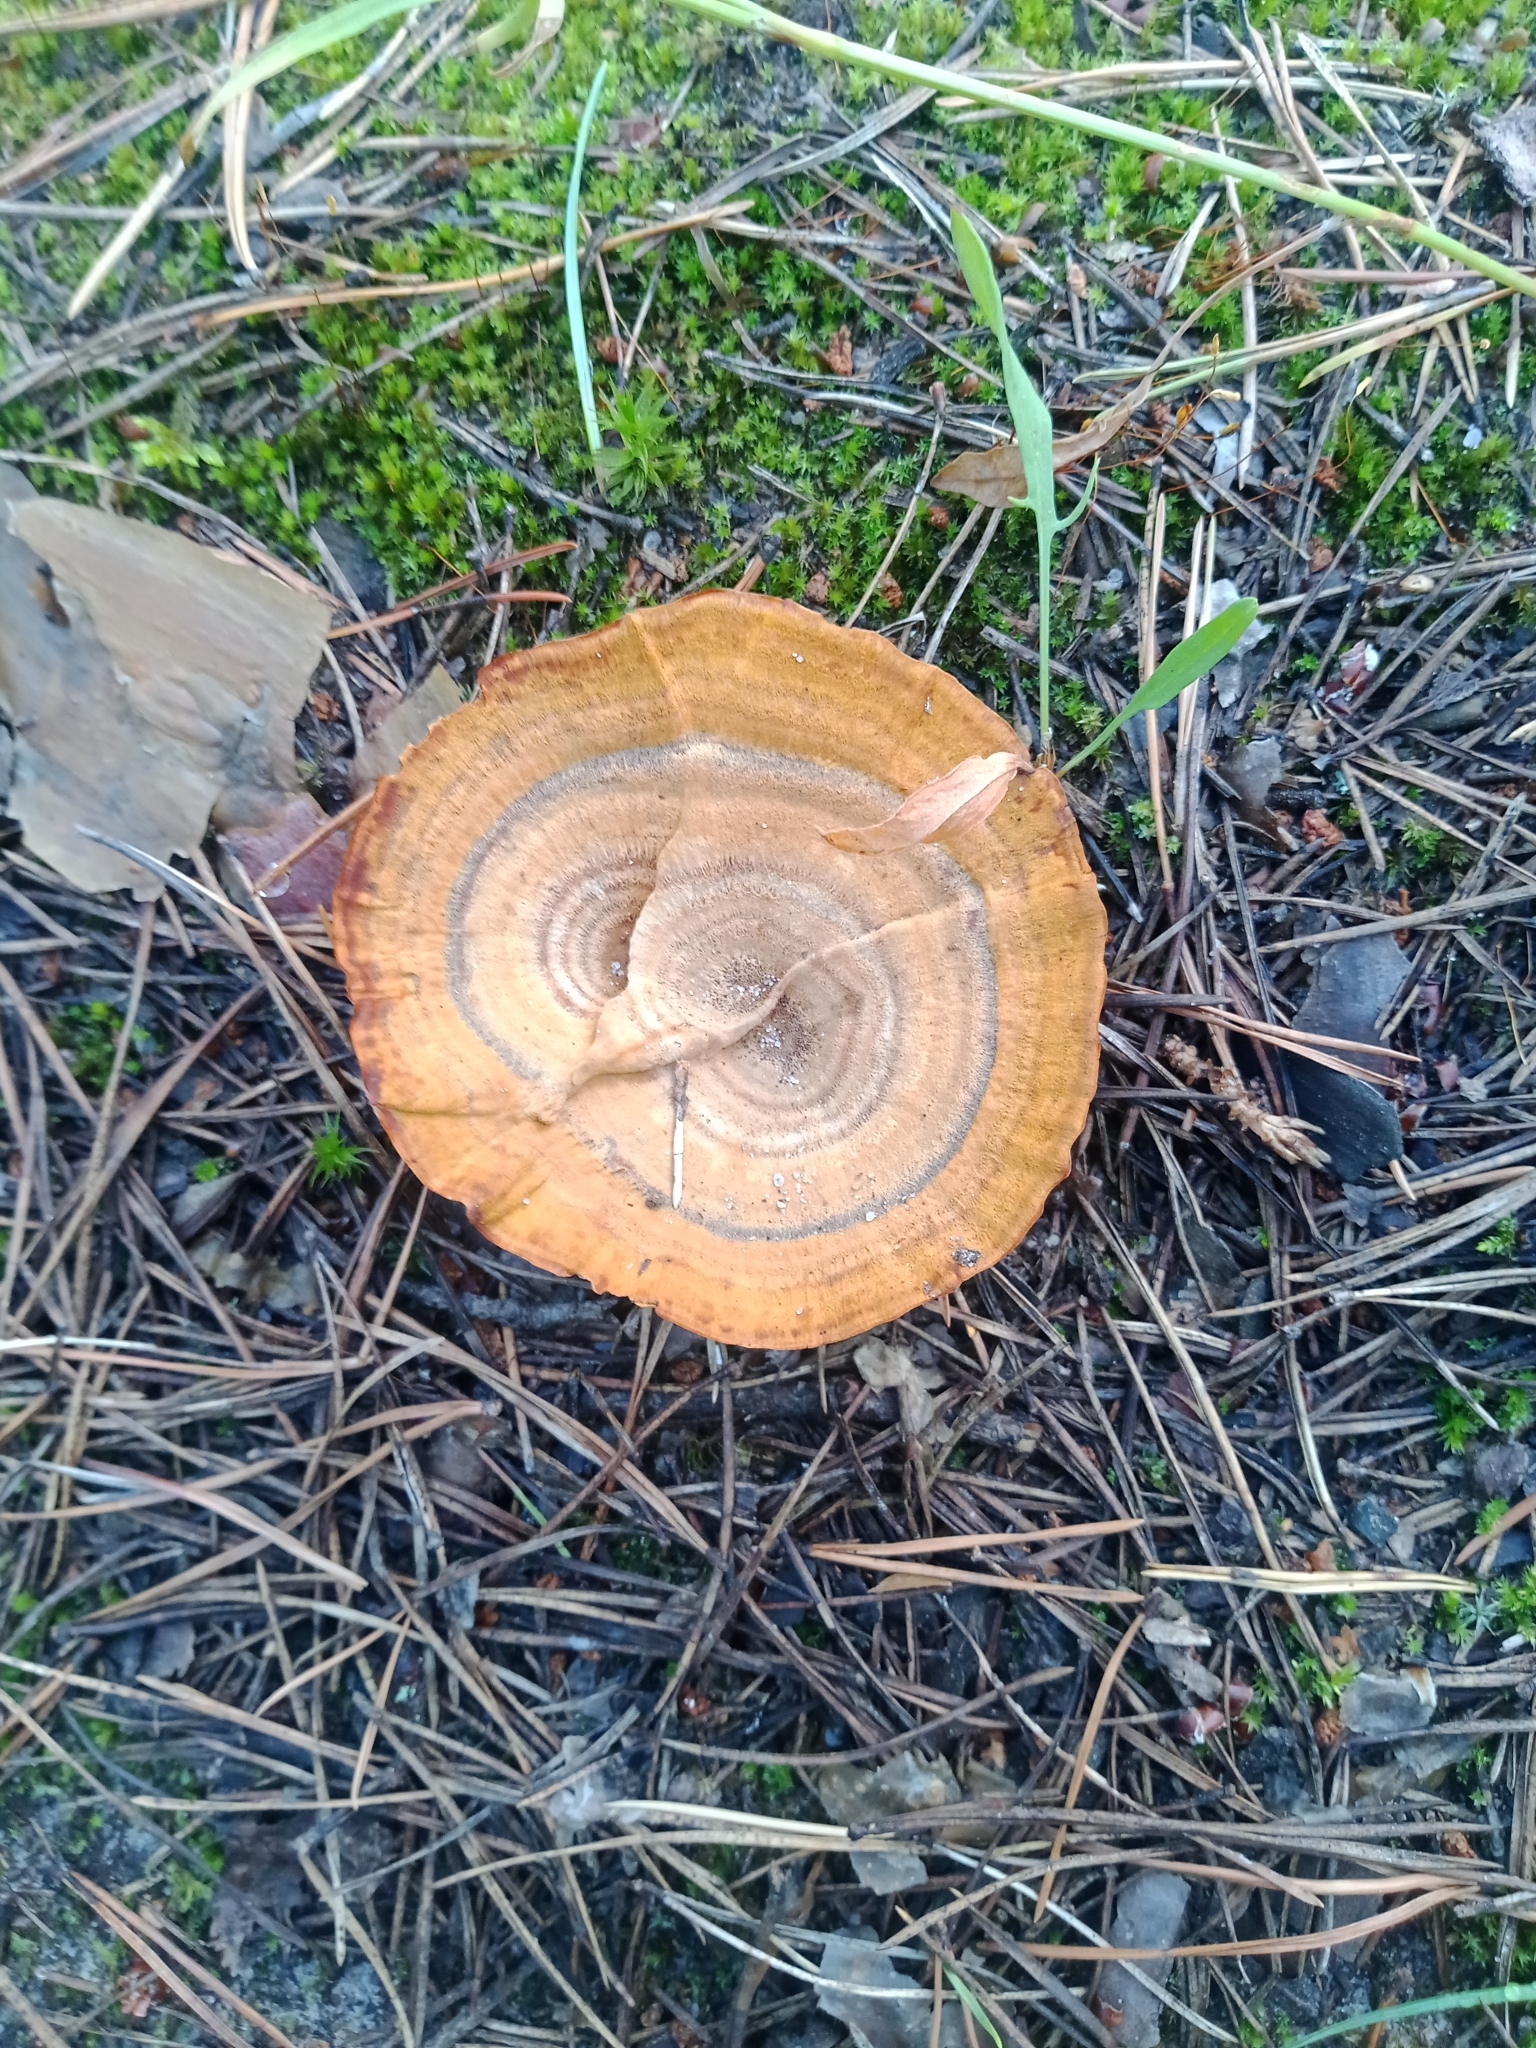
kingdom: Fungi
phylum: Basidiomycota
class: Agaricomycetes
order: Hymenochaetales
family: Hymenochaetaceae
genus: Coltricia
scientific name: Coltricia perennis
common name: Tiger's eye
